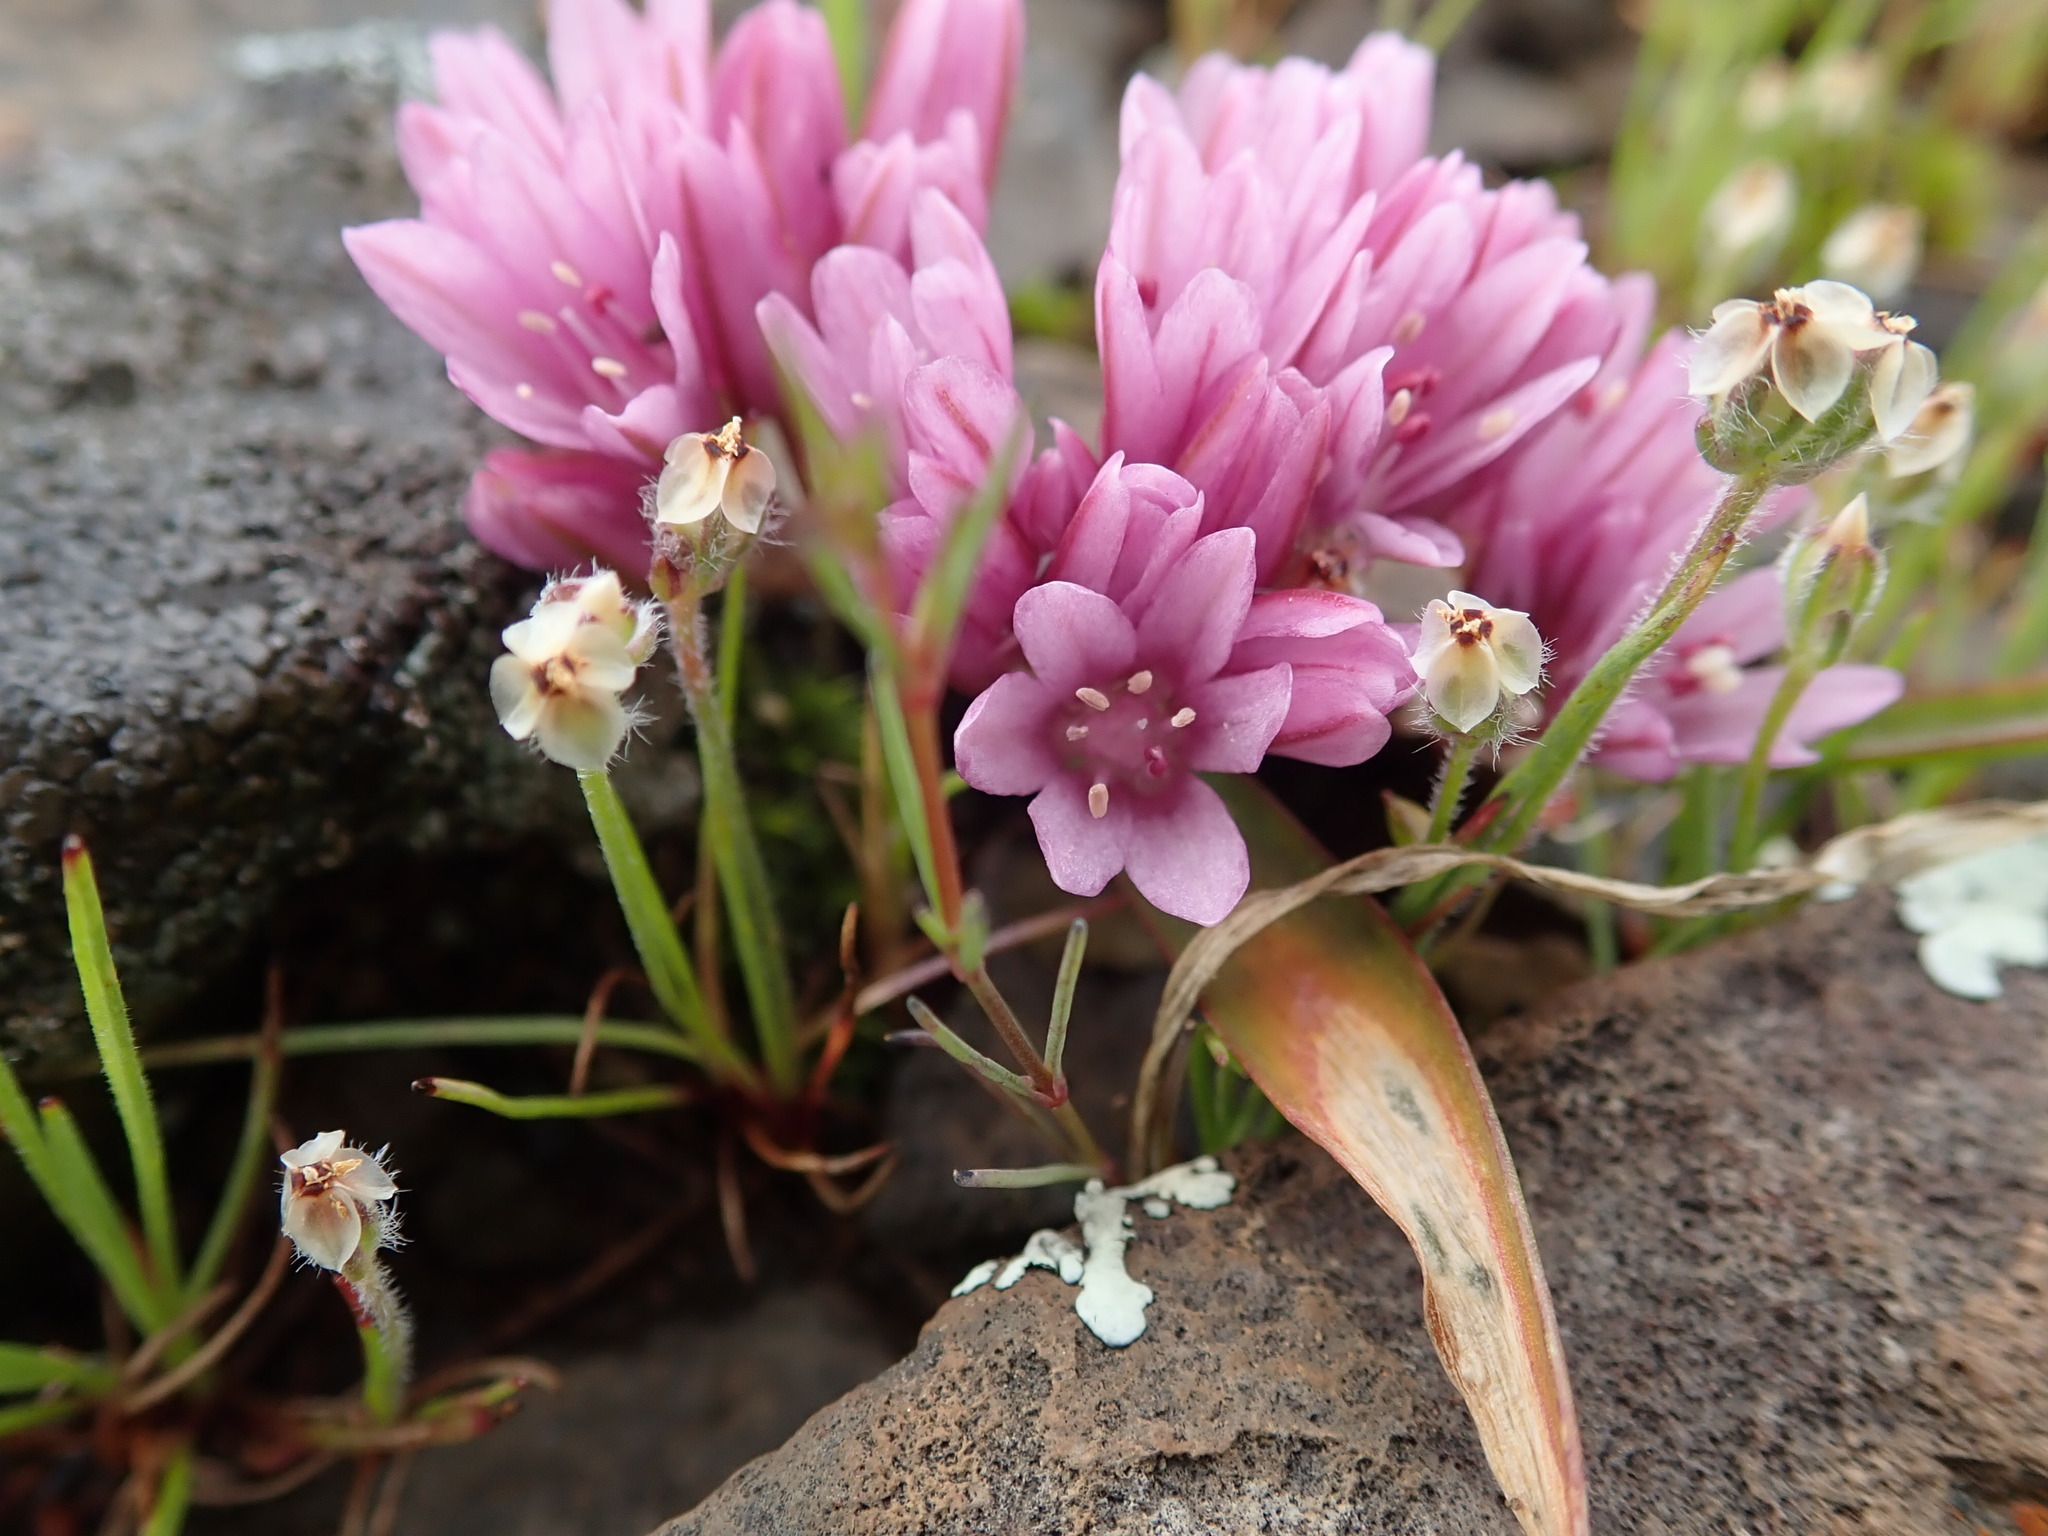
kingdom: Plantae
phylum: Tracheophyta
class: Liliopsida
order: Asparagales
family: Amaryllidaceae
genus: Allium
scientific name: Allium cratericola
